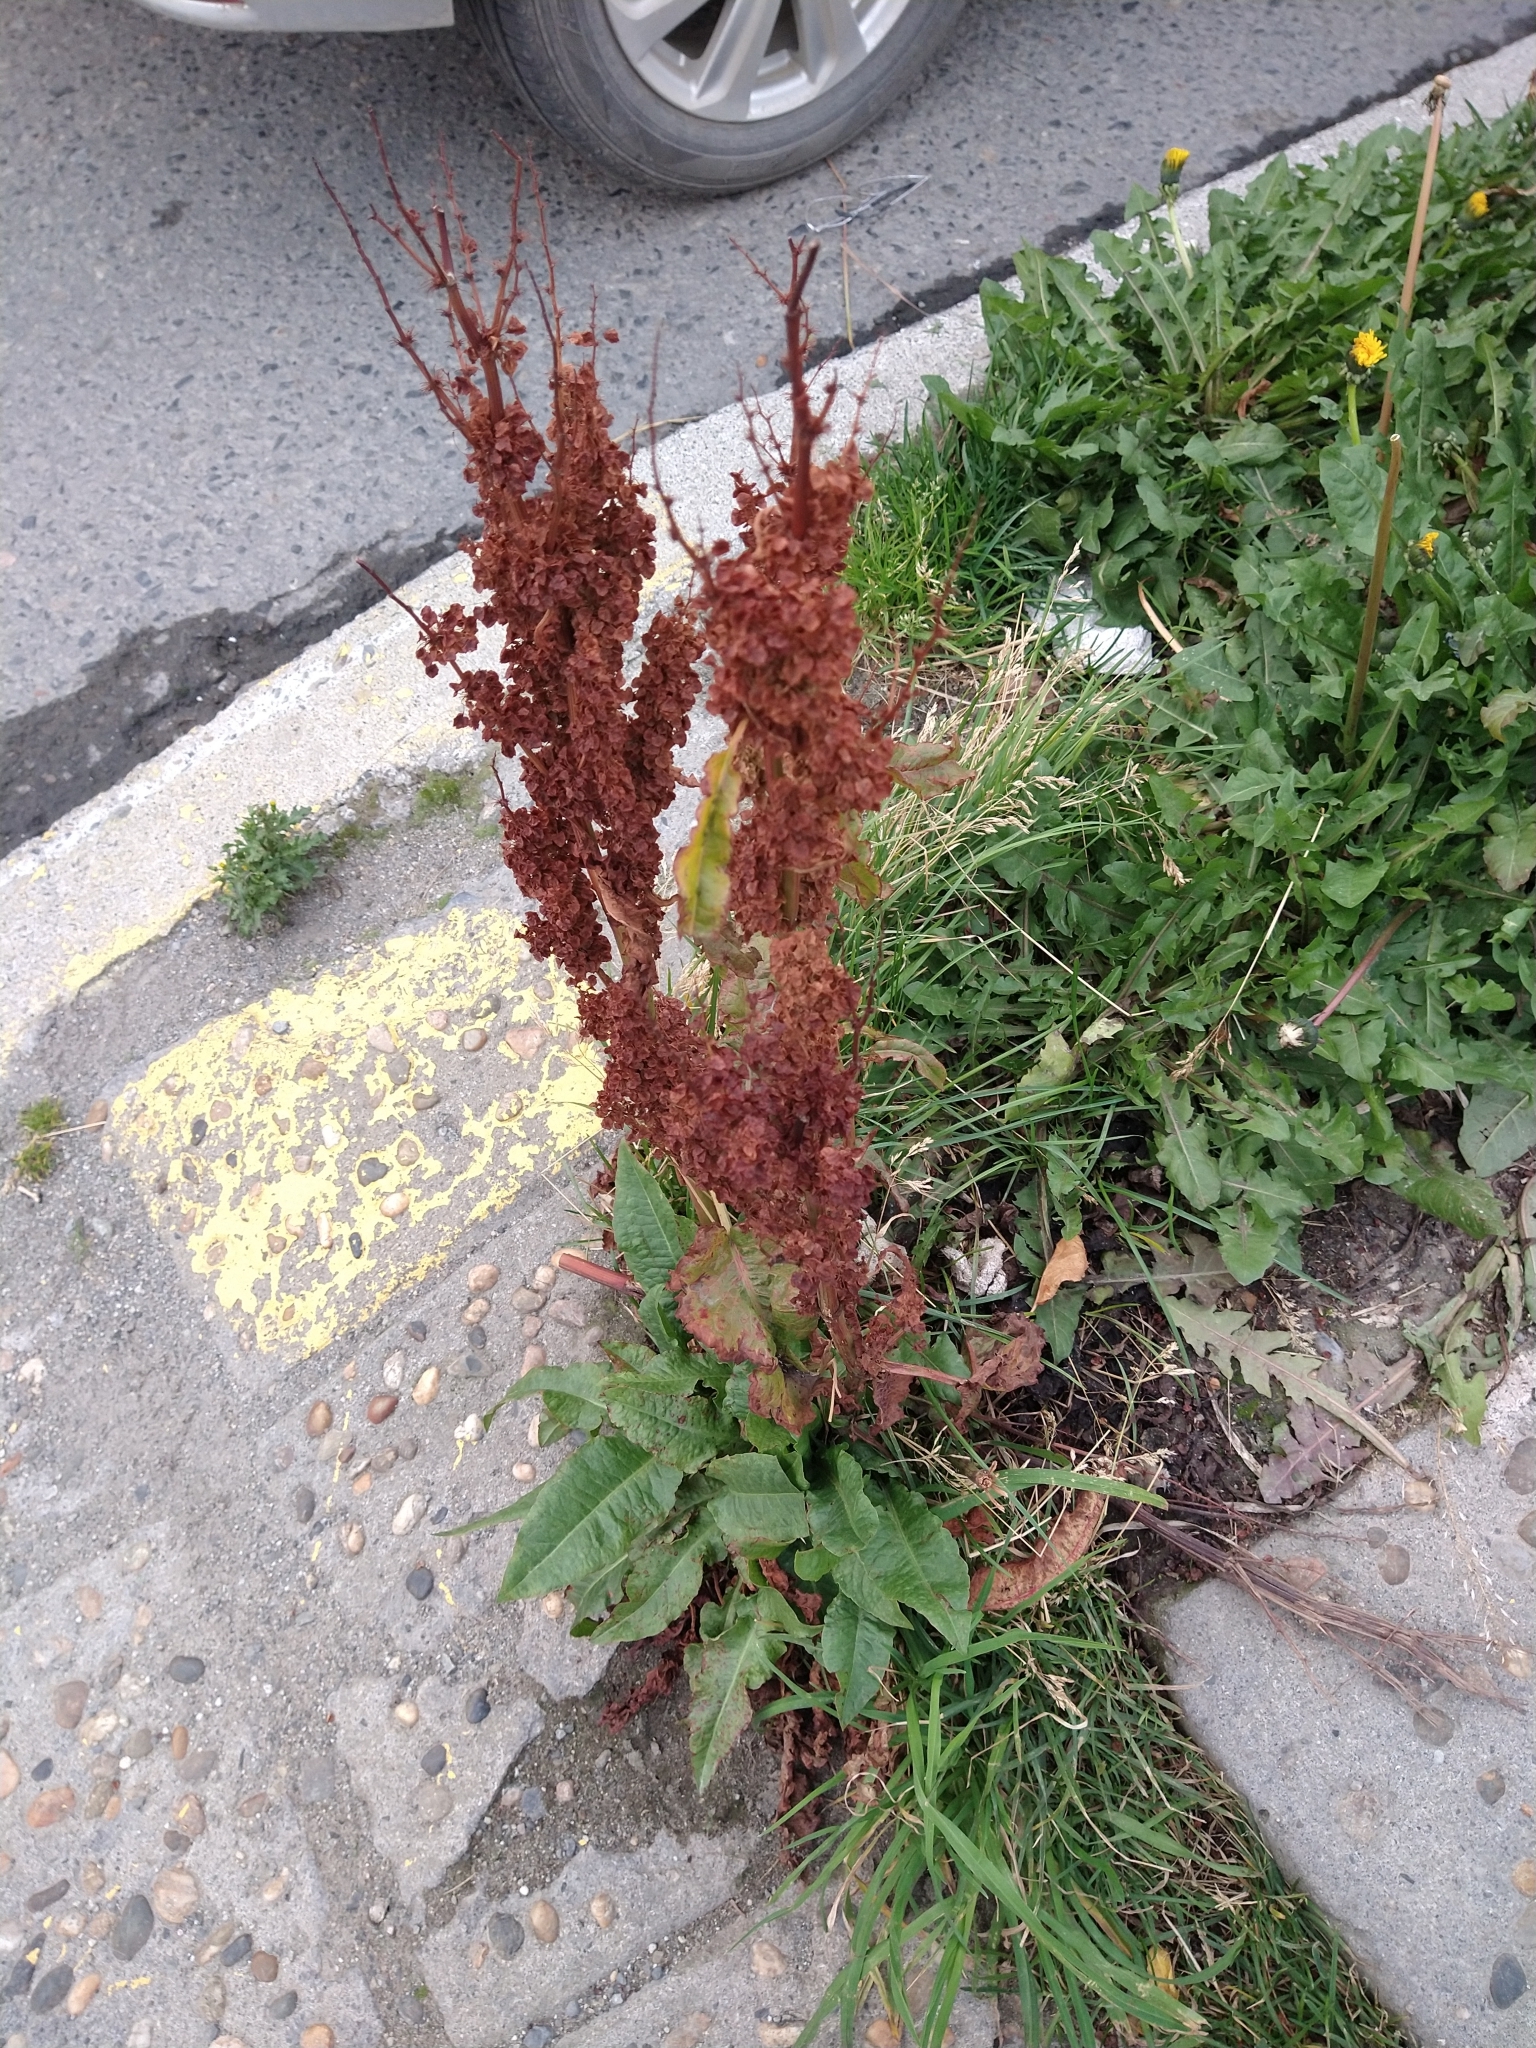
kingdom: Plantae
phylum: Tracheophyta
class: Magnoliopsida
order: Caryophyllales
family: Polygonaceae
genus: Rumex
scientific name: Rumex crispus
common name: Curled dock
